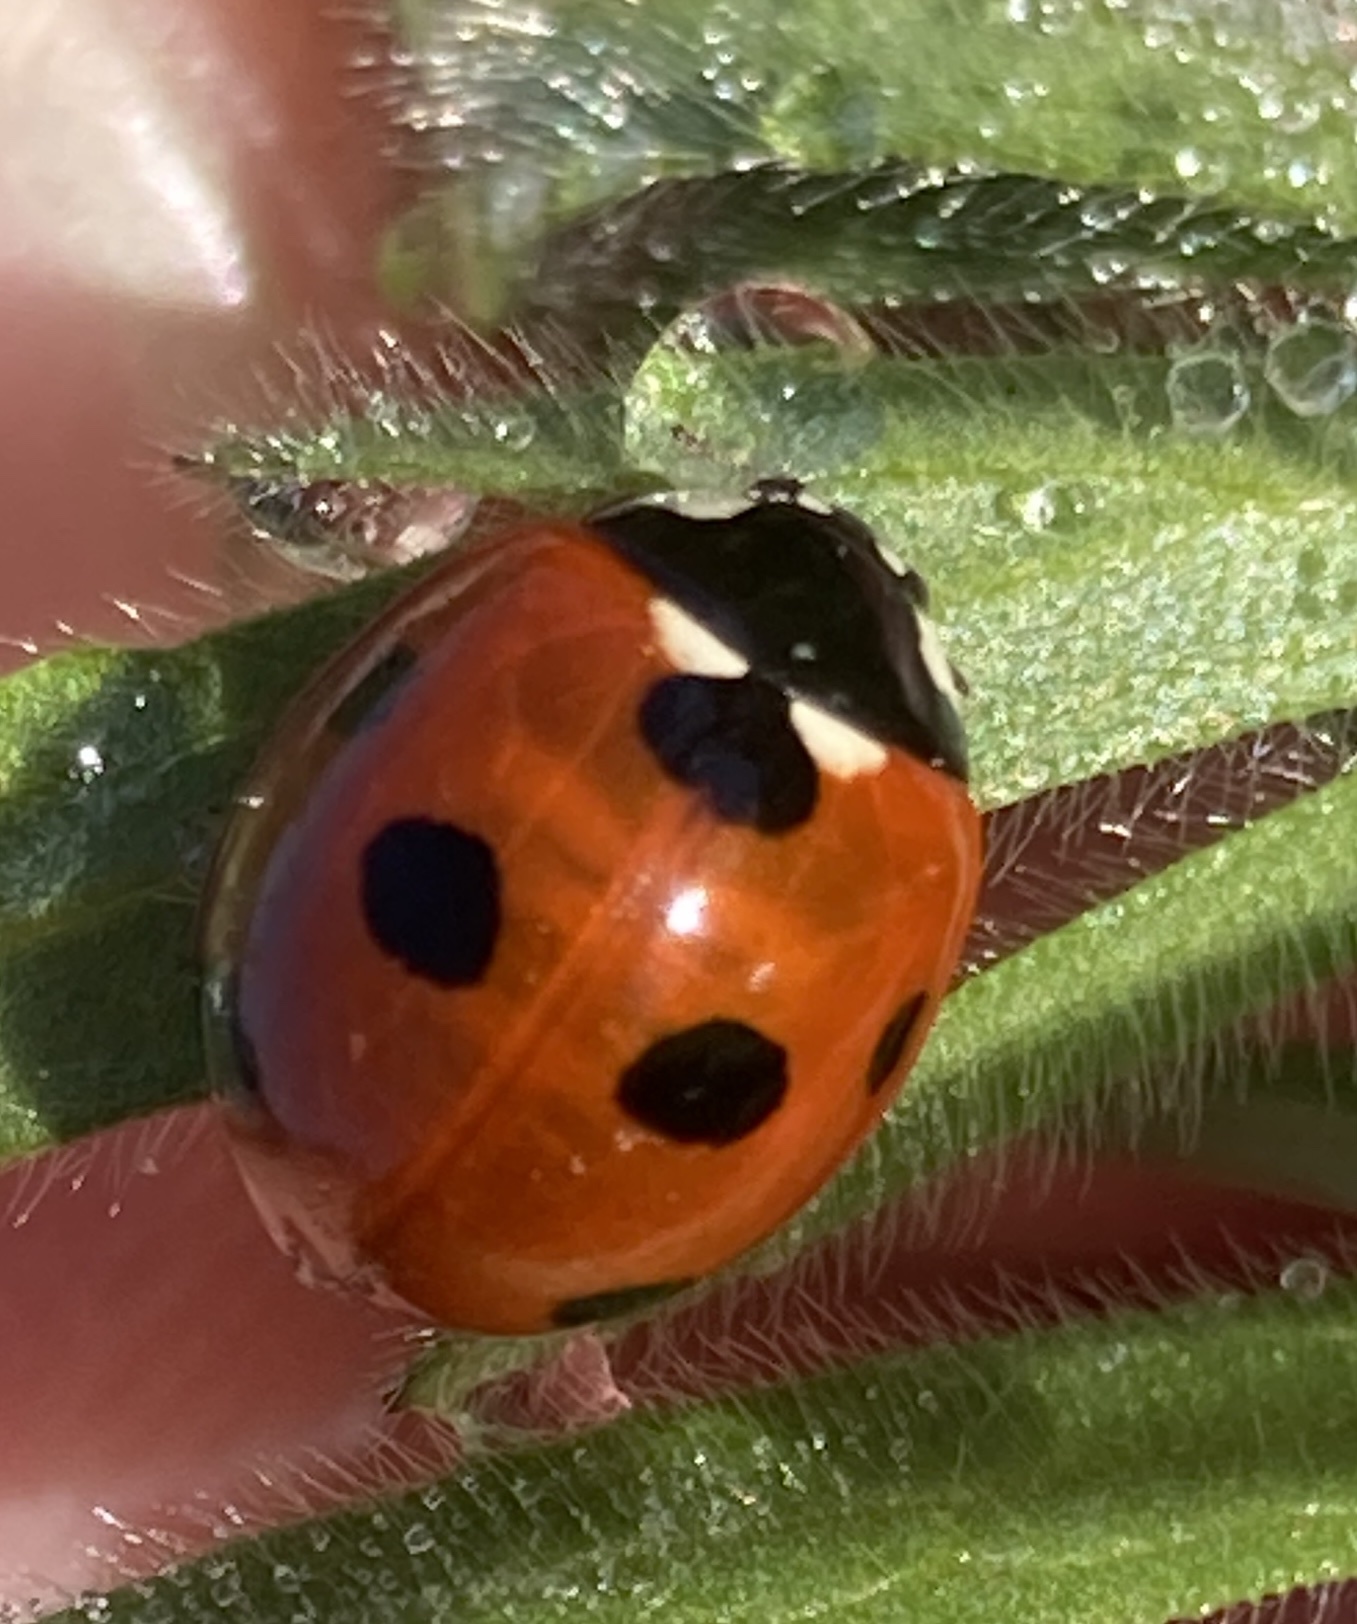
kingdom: Animalia
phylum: Arthropoda
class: Insecta
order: Coleoptera
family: Coccinellidae
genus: Coccinella
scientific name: Coccinella septempunctata
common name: Sevenspotted lady beetle
